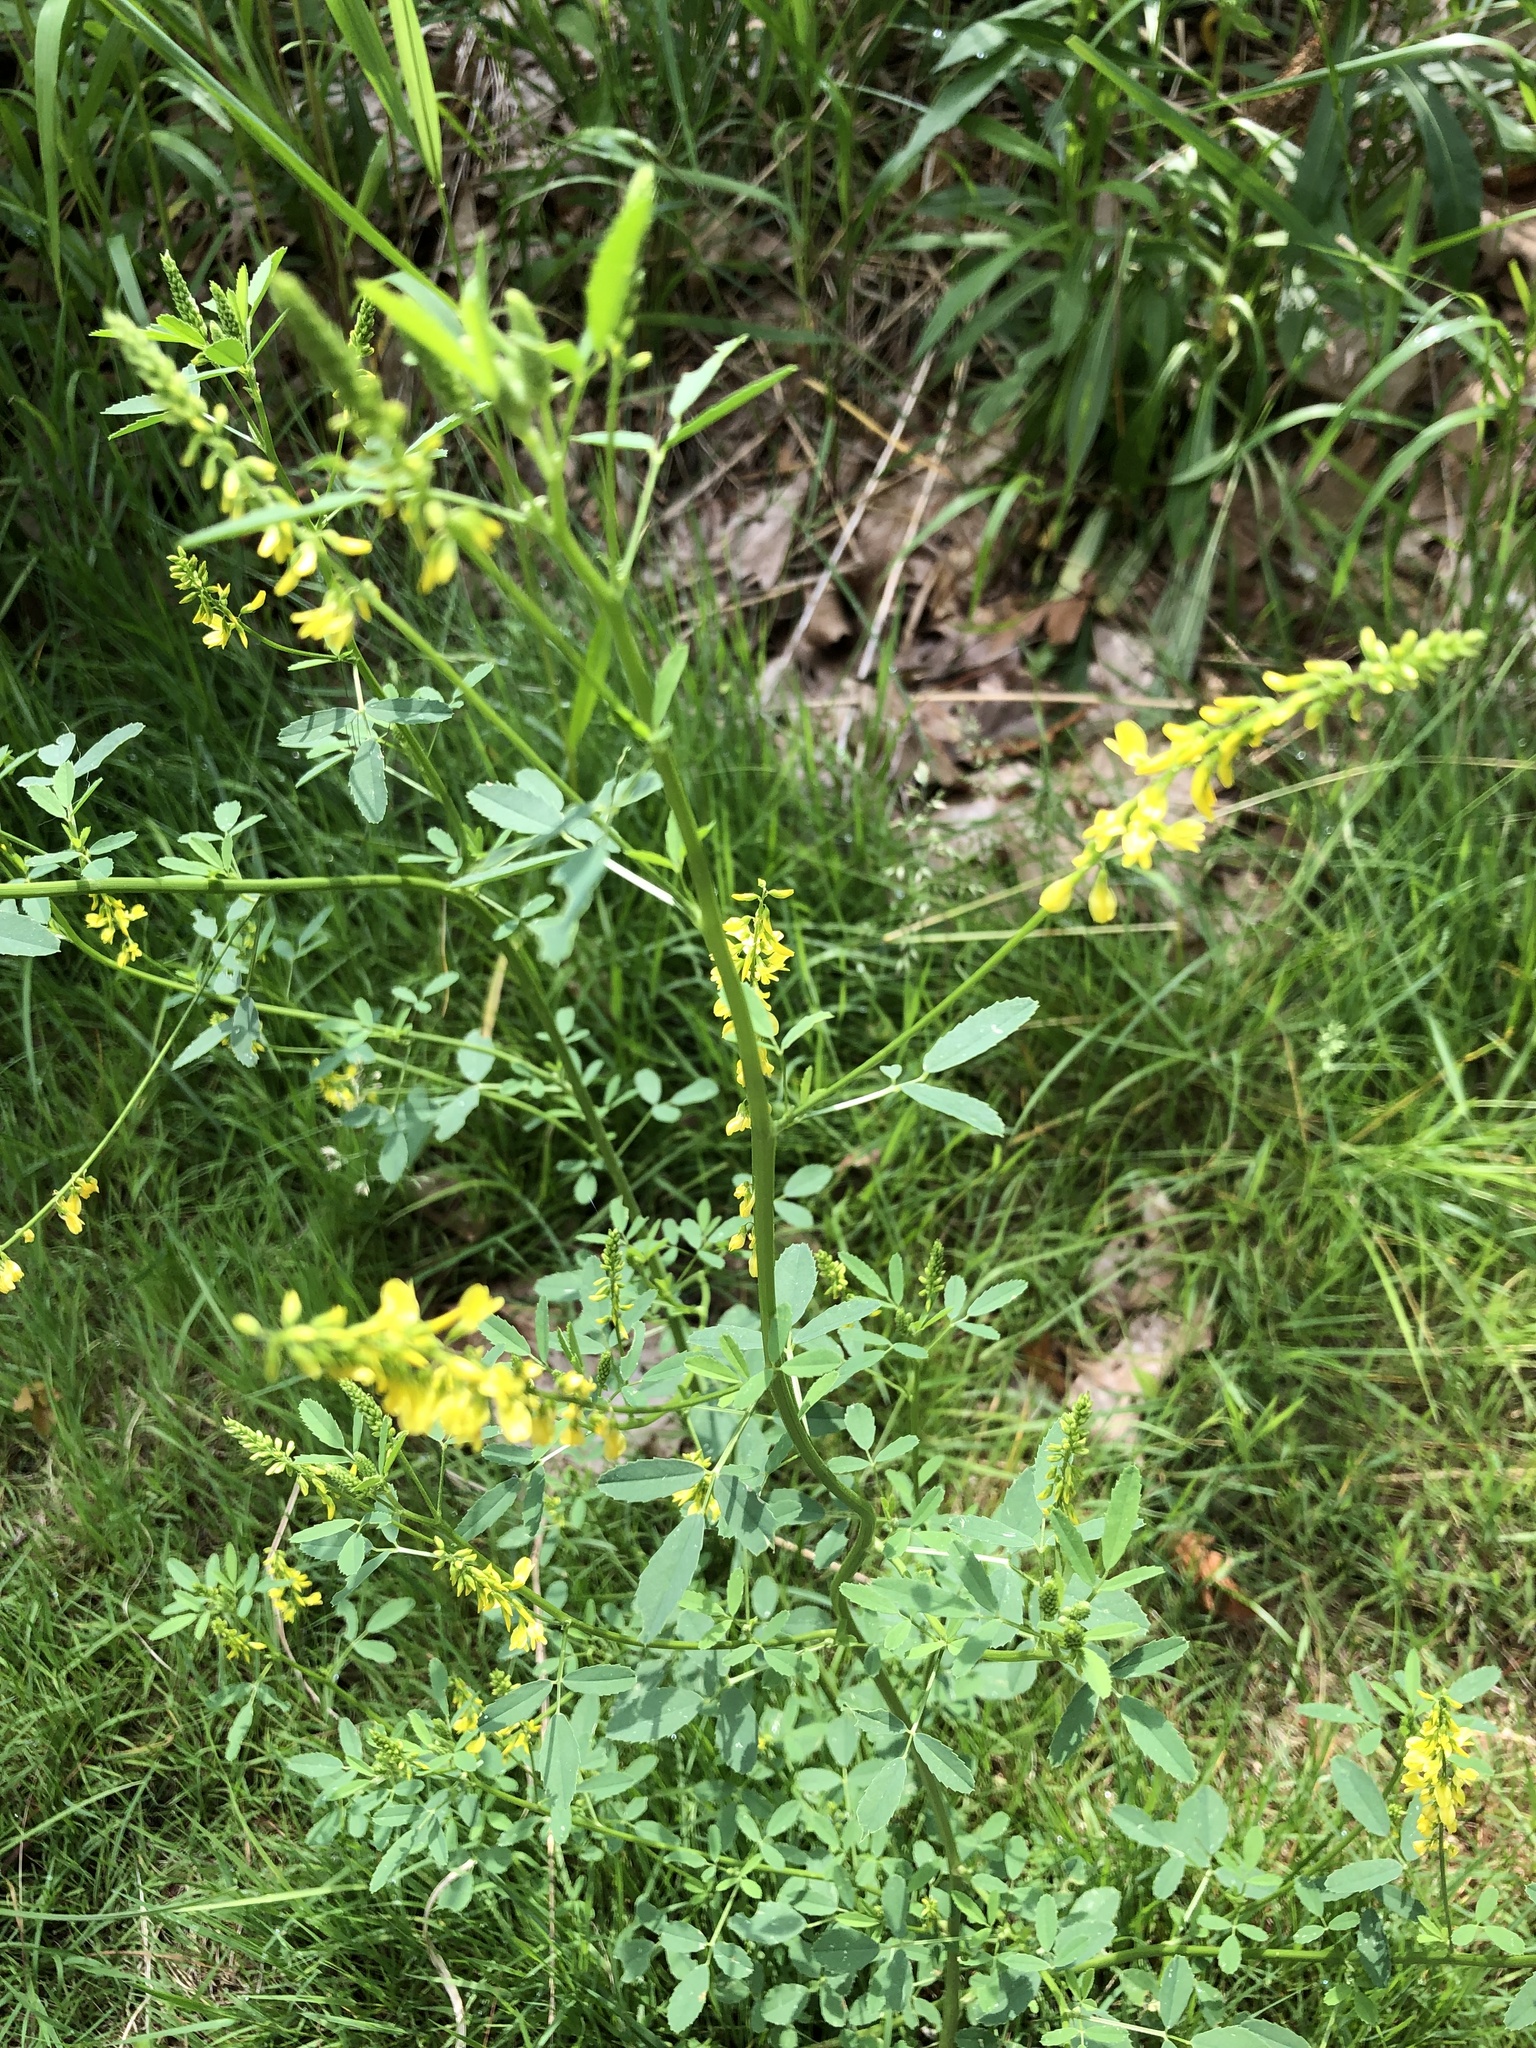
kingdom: Plantae
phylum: Tracheophyta
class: Magnoliopsida
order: Fabales
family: Fabaceae
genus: Melilotus
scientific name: Melilotus officinalis
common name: Sweetclover
